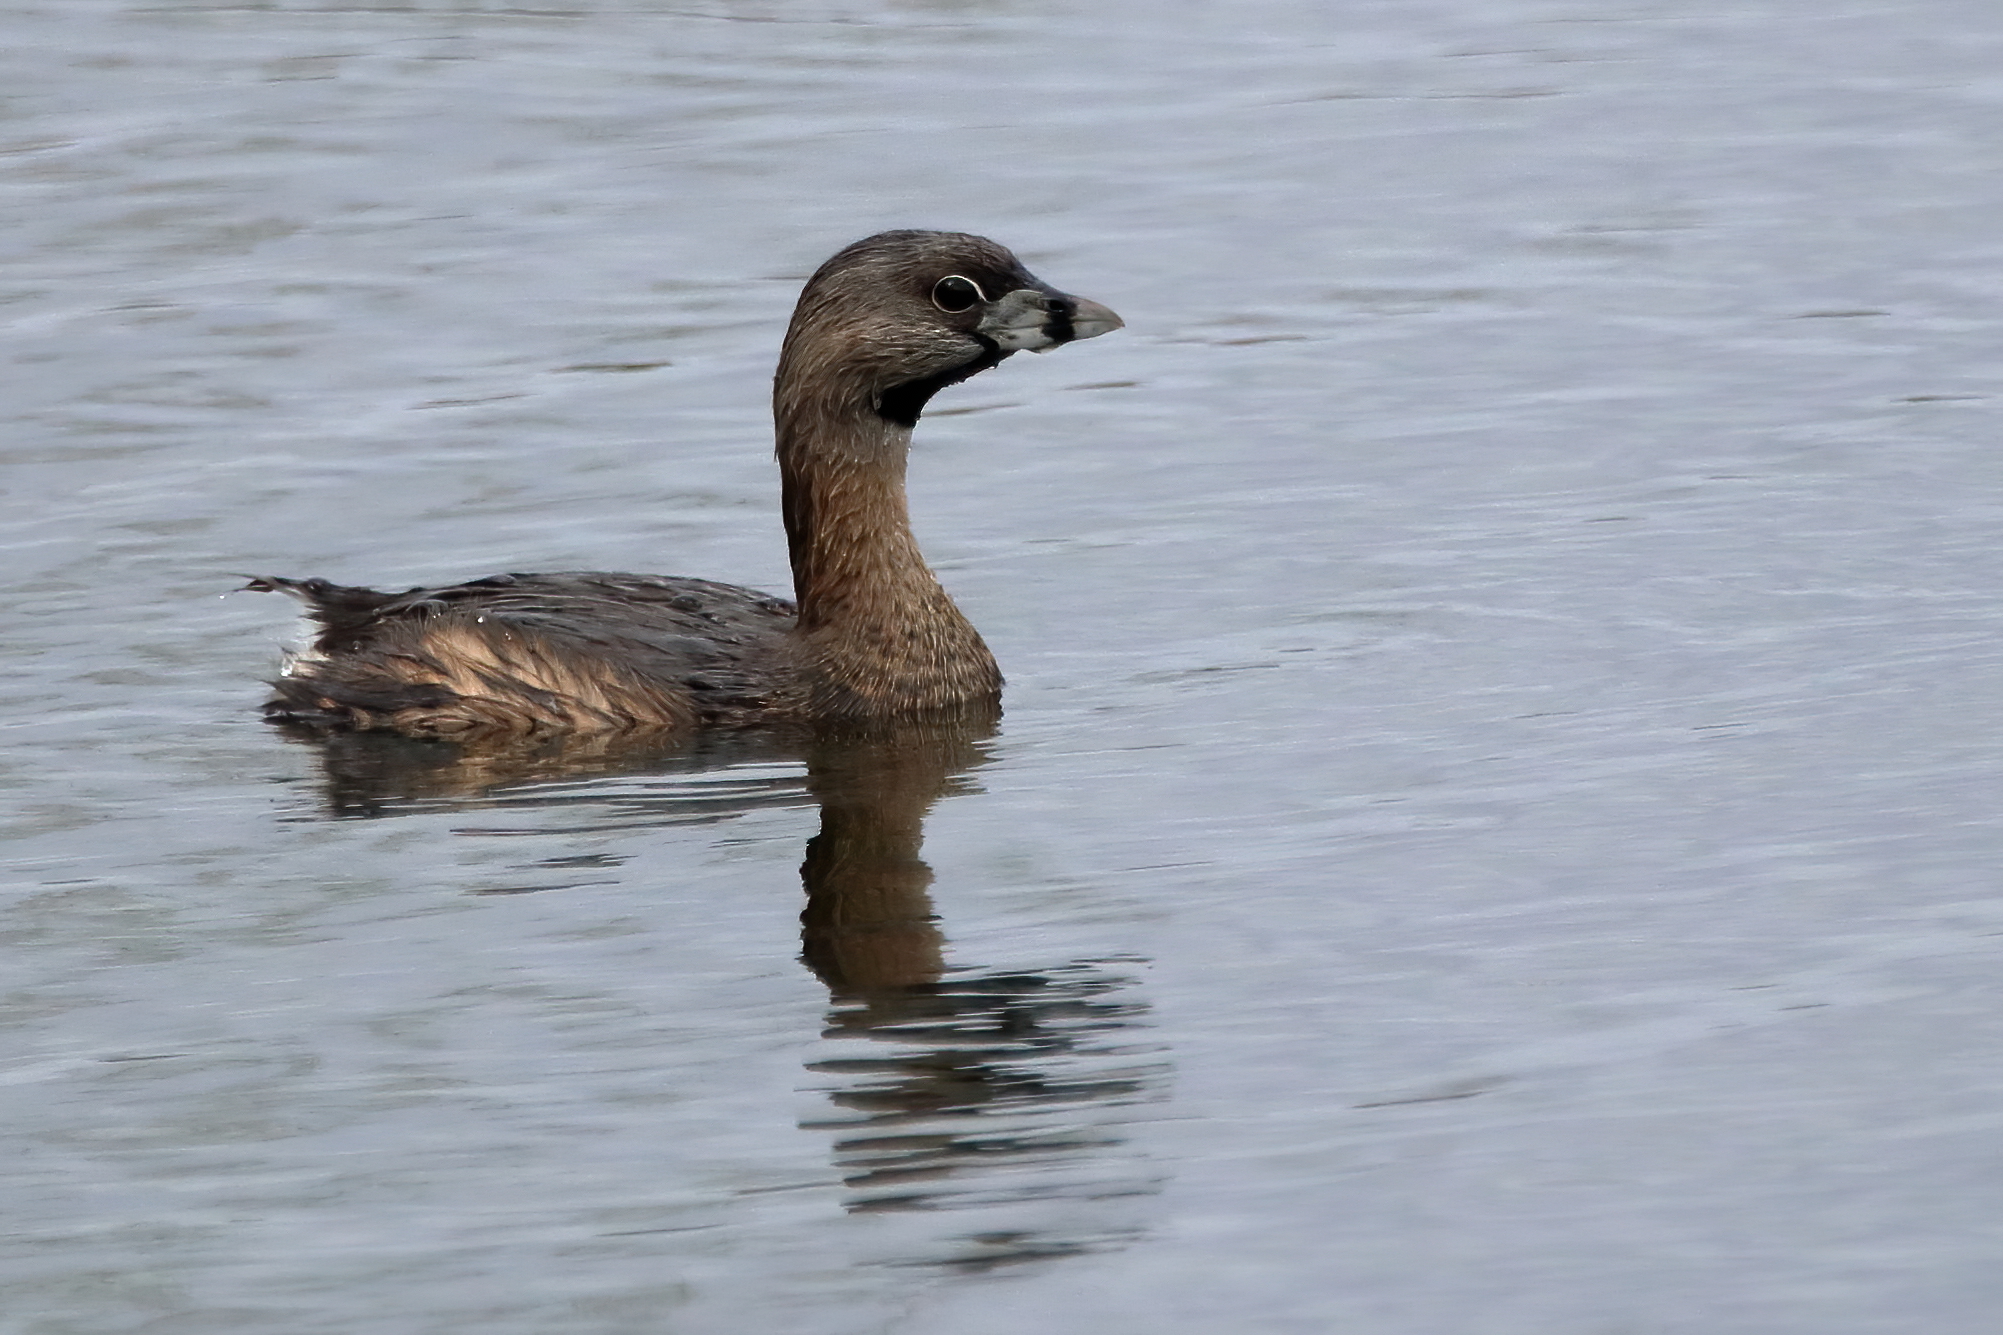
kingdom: Animalia
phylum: Chordata
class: Aves
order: Podicipediformes
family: Podicipedidae
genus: Podilymbus
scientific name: Podilymbus podiceps
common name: Pied-billed grebe
